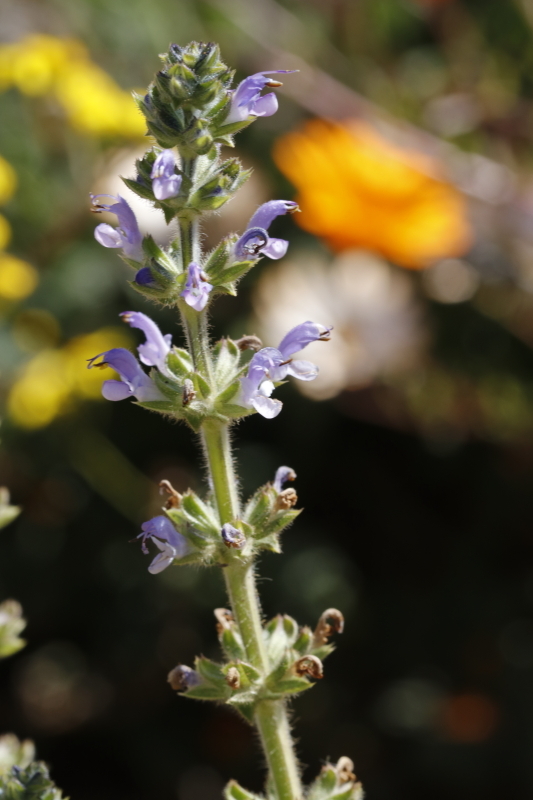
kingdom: Plantae
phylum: Tracheophyta
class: Magnoliopsida
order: Lamiales
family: Lamiaceae
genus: Salvia
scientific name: Salvia verbenaca
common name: Wild clary
